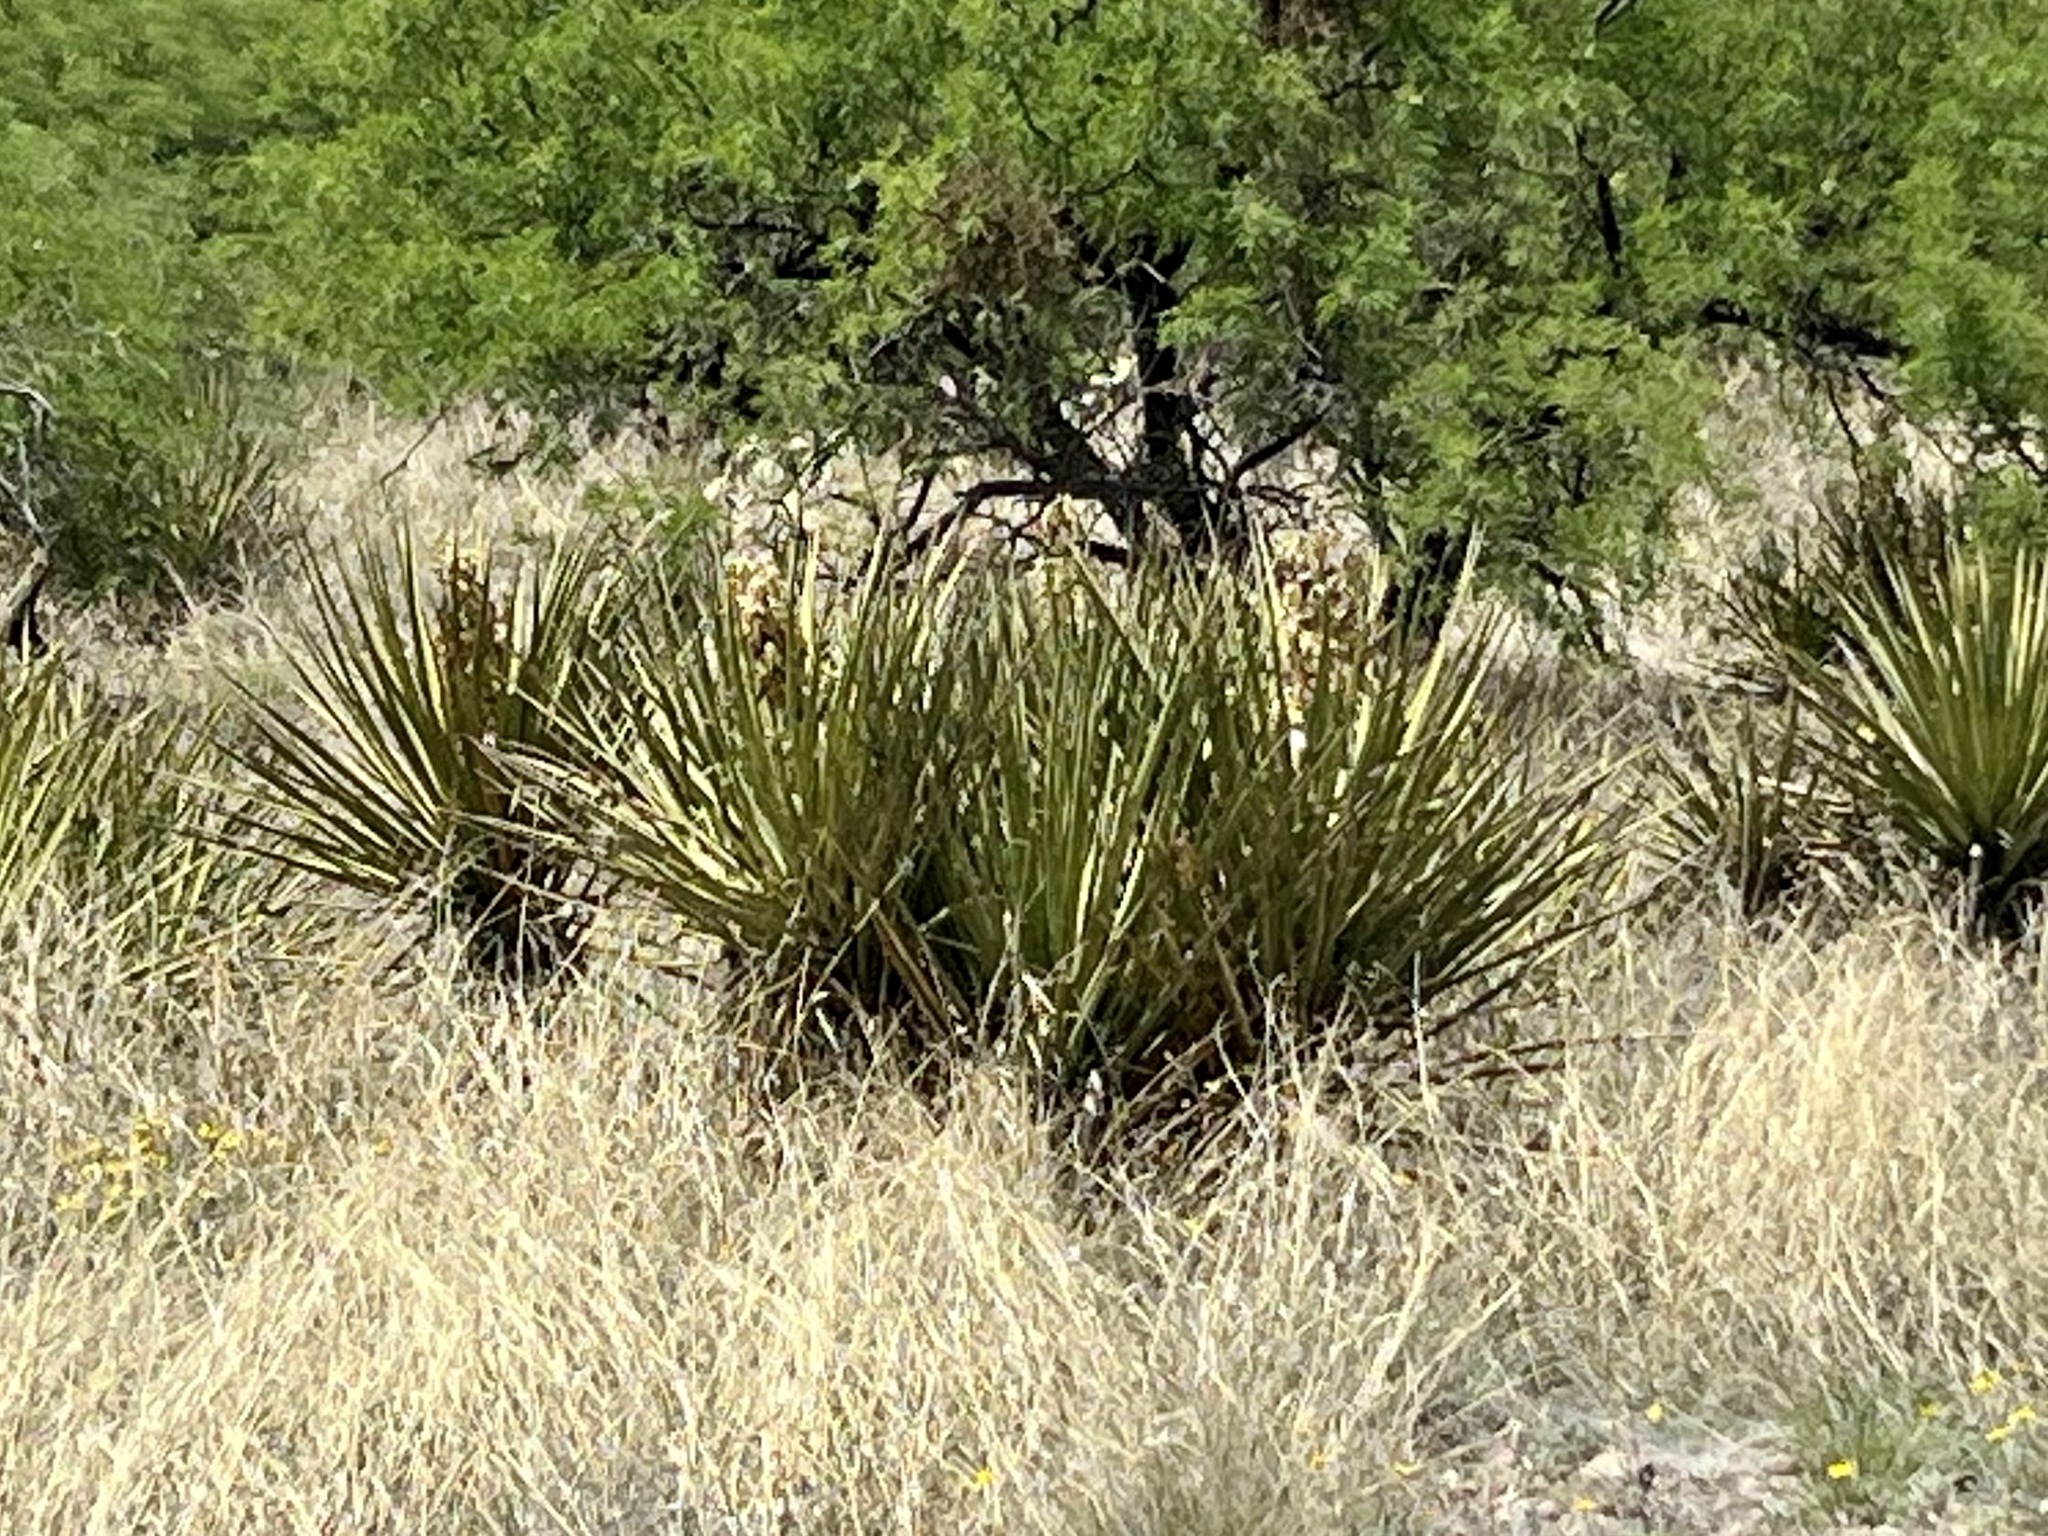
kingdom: Plantae
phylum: Tracheophyta
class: Liliopsida
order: Asparagales
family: Asparagaceae
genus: Yucca
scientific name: Yucca baccata
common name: Banana yucca
